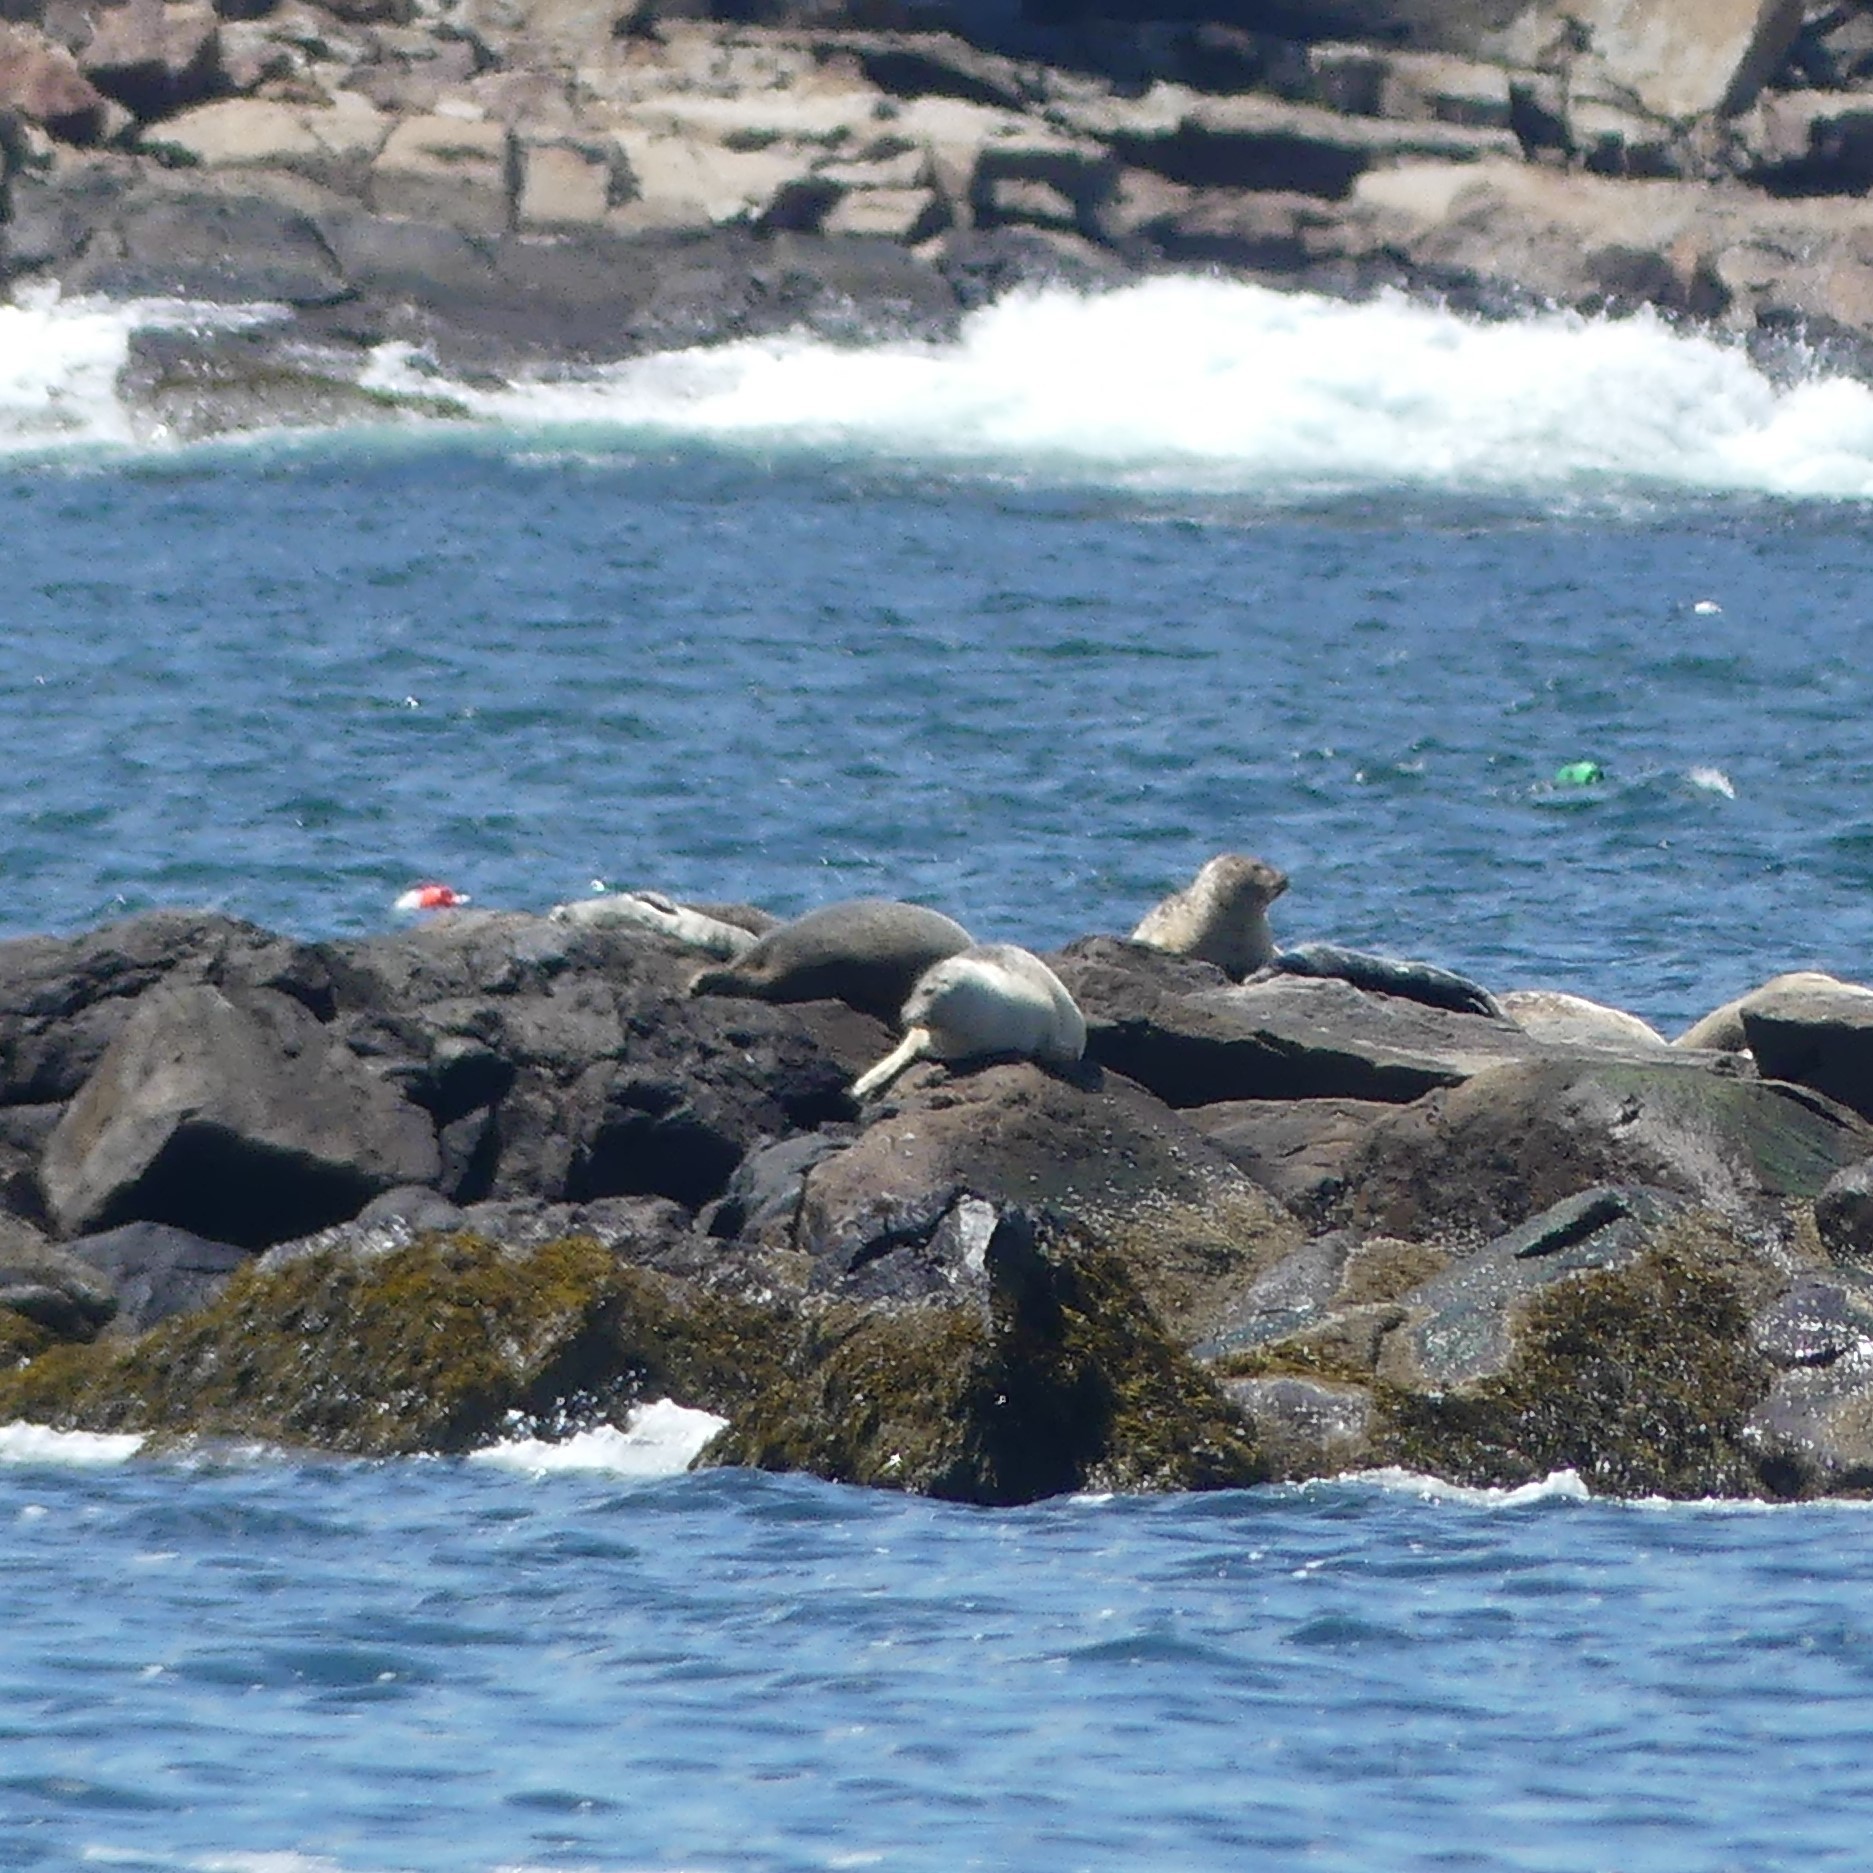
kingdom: Animalia
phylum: Chordata
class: Mammalia
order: Carnivora
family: Phocidae
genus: Phoca
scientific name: Phoca vitulina
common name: Harbor seal
